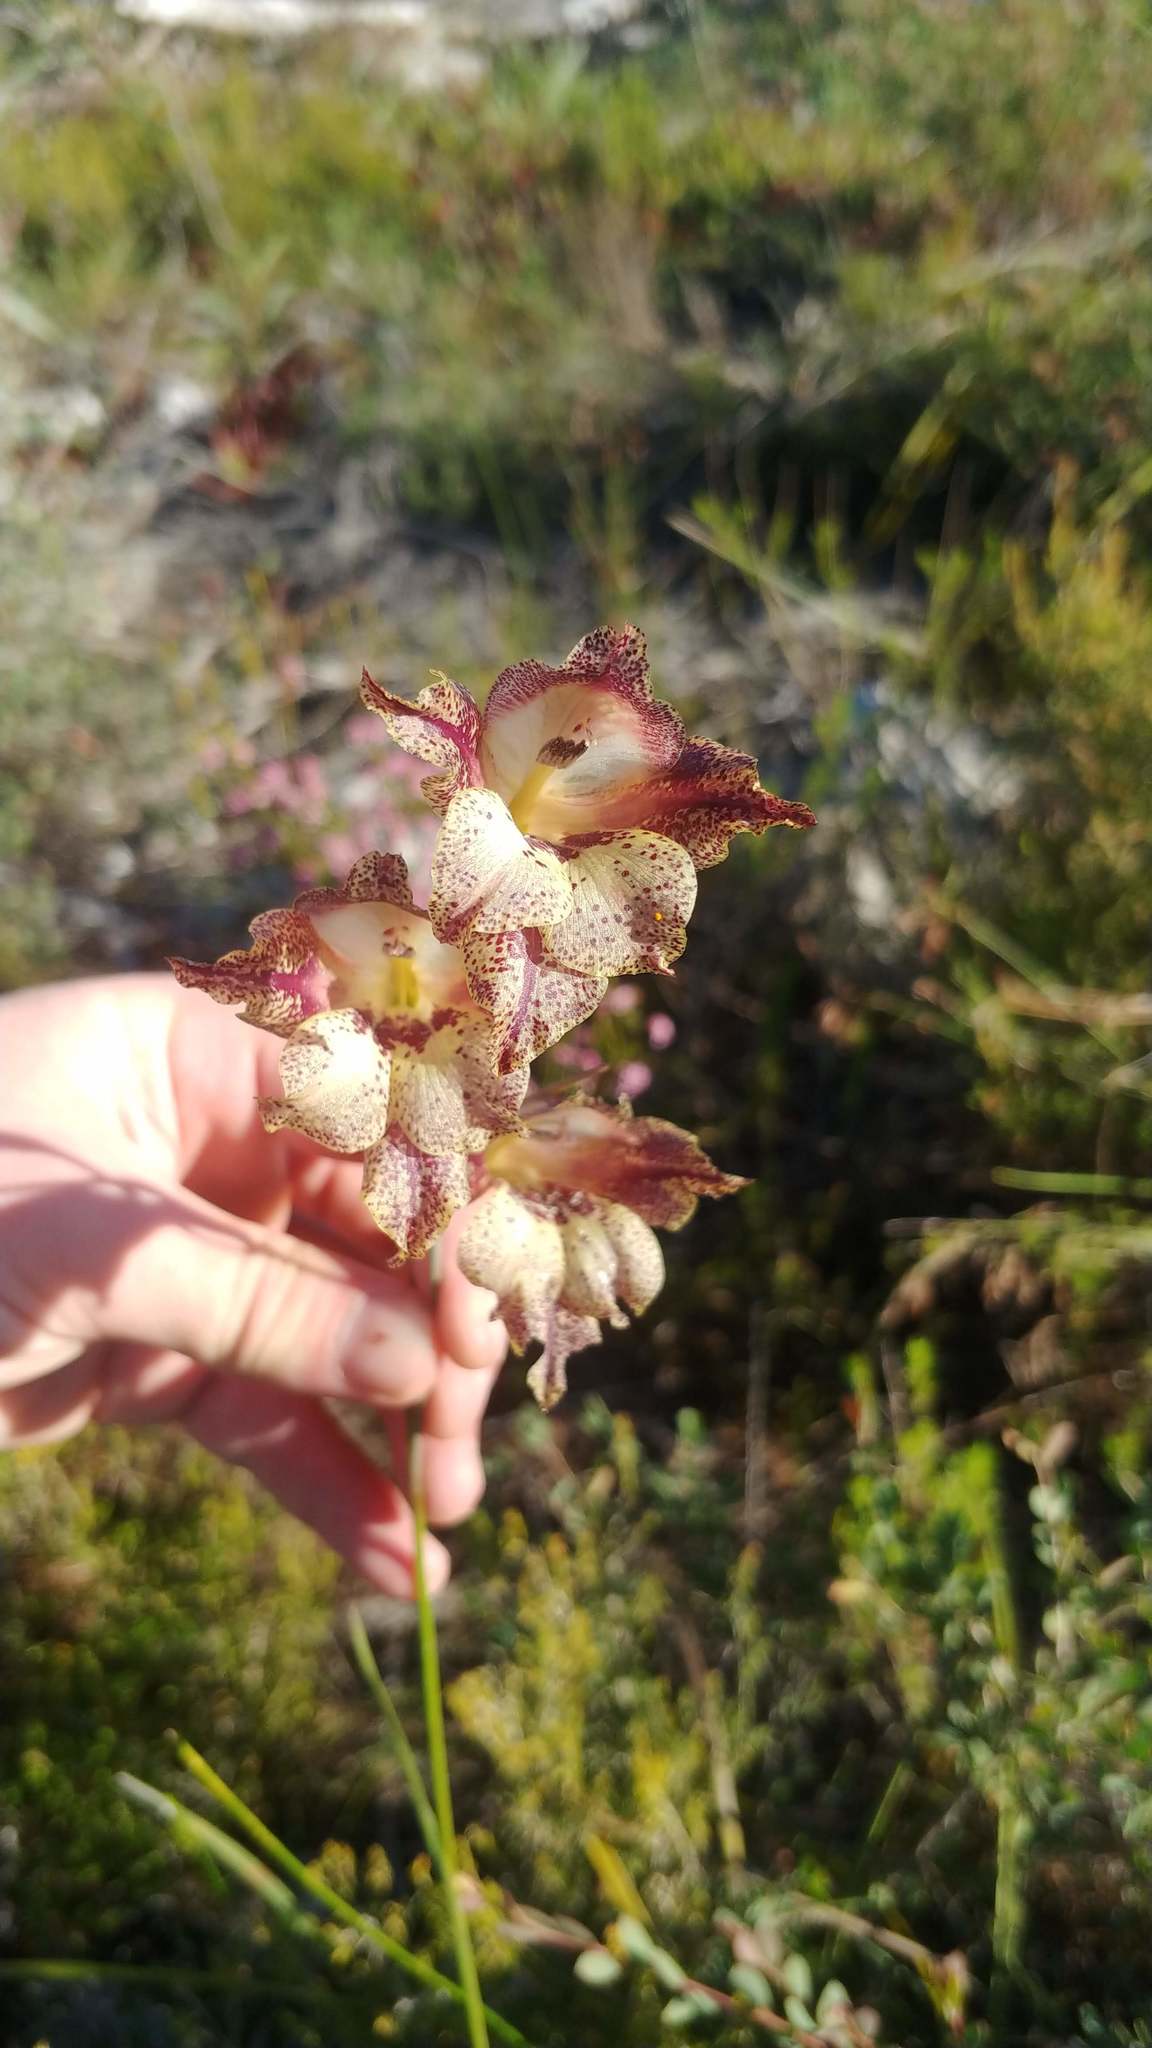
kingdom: Plantae
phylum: Tracheophyta
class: Liliopsida
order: Asparagales
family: Iridaceae
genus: Gladiolus
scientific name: Gladiolus maculatus
